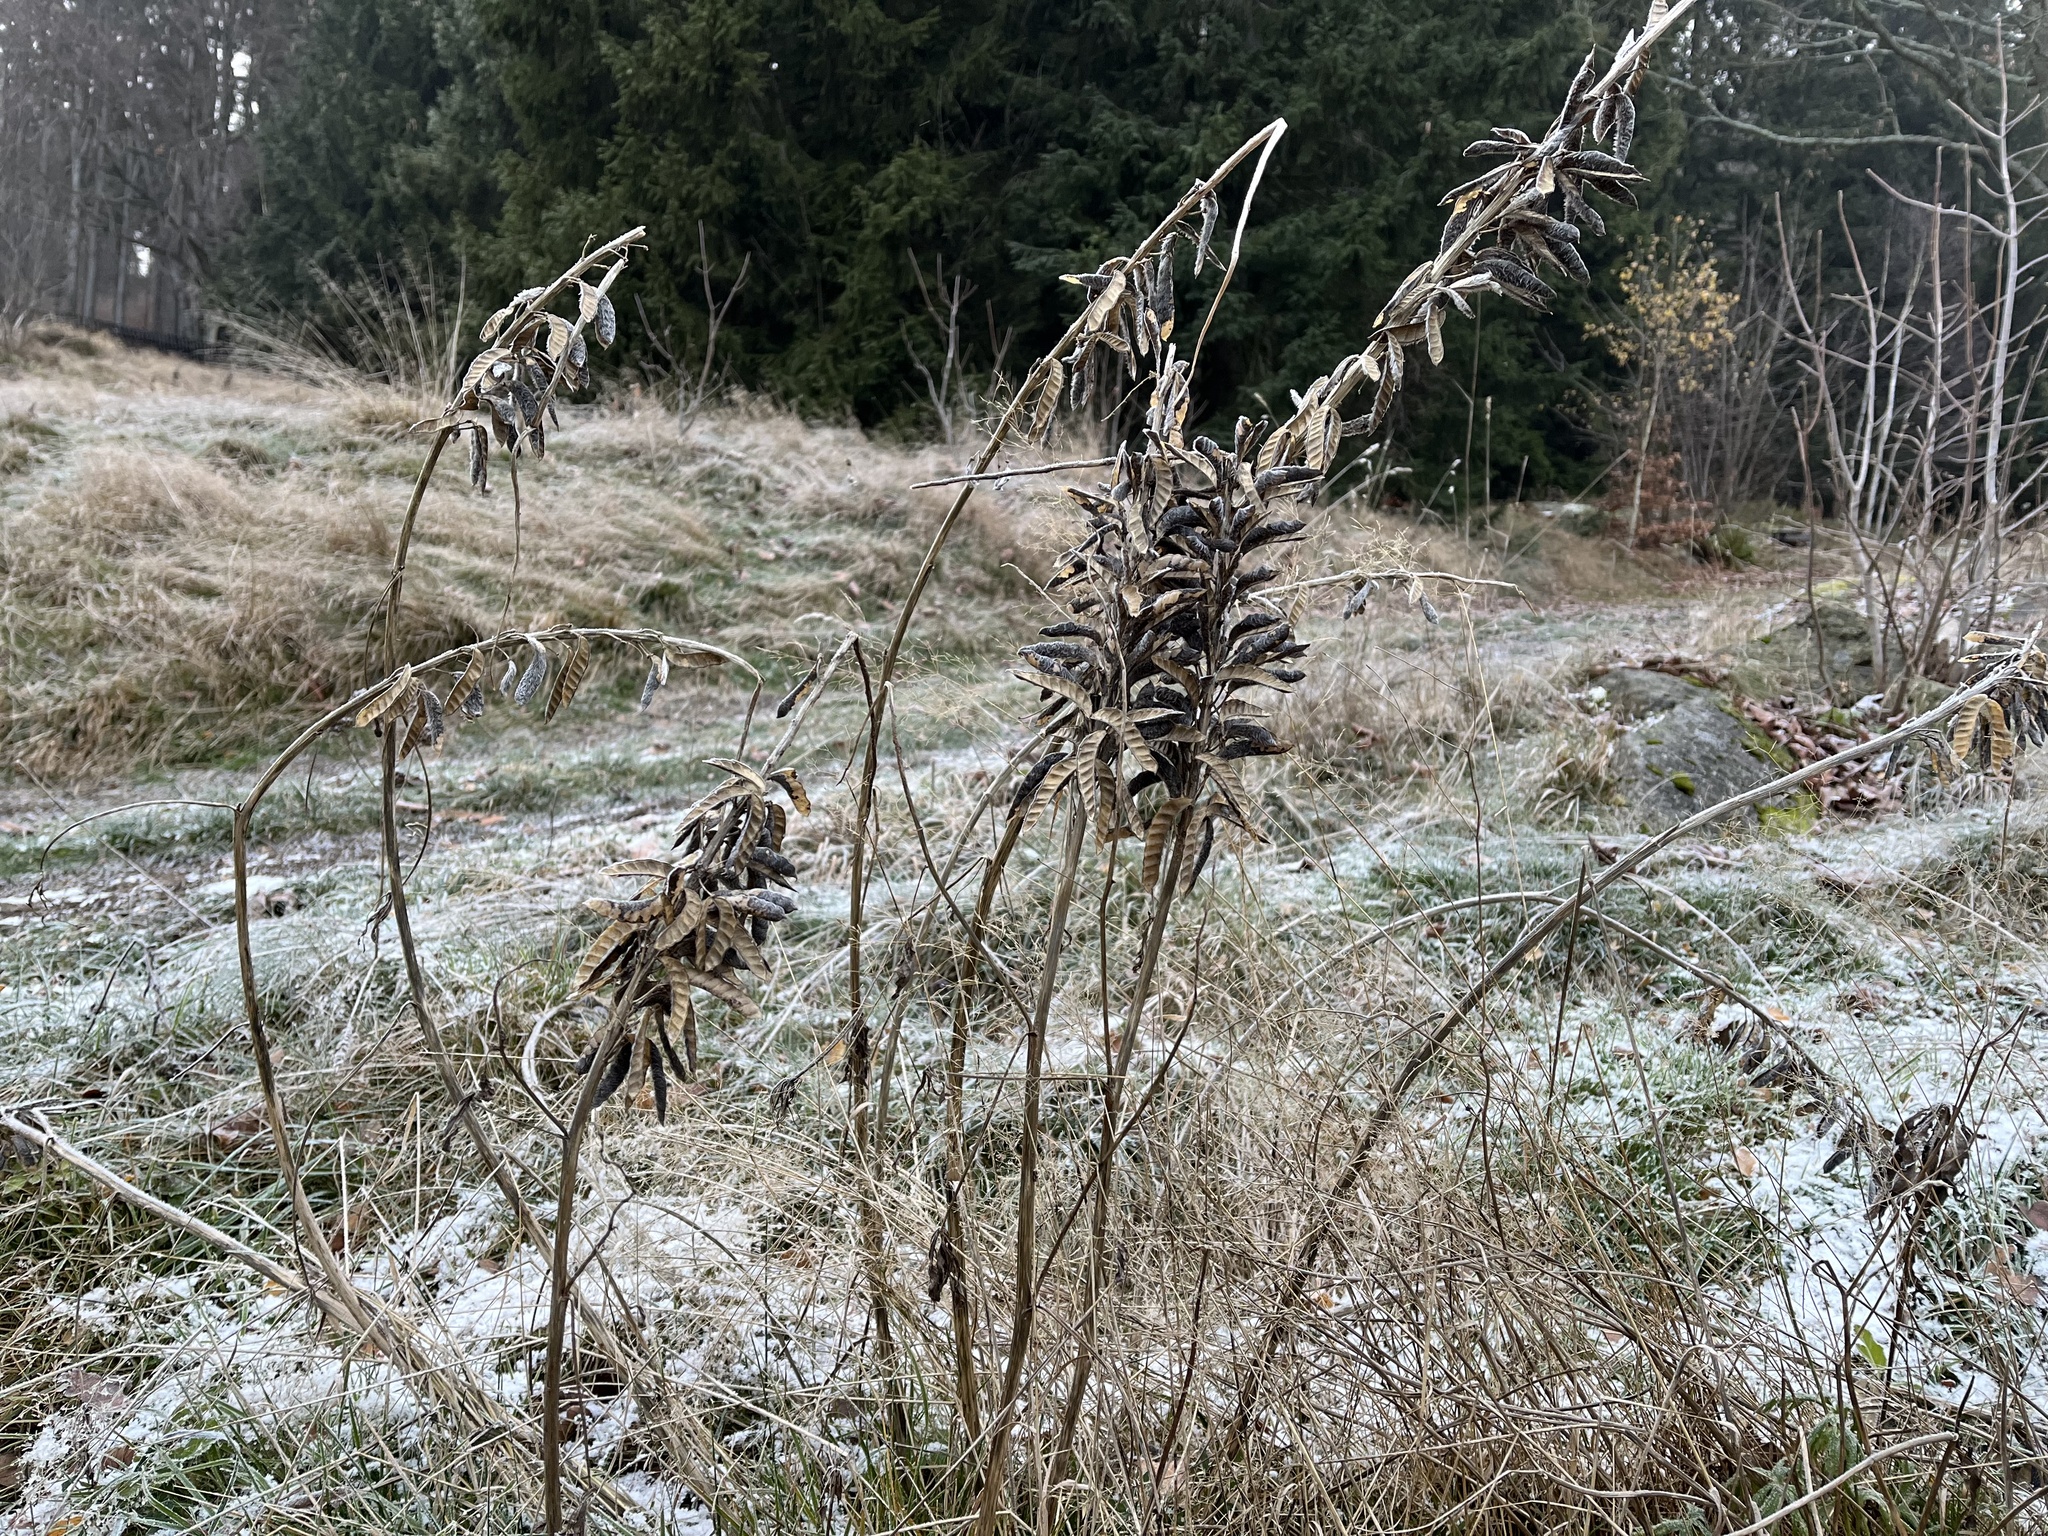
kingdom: Plantae
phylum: Tracheophyta
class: Magnoliopsida
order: Fabales
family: Fabaceae
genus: Lupinus
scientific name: Lupinus polyphyllus
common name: Garden lupin
